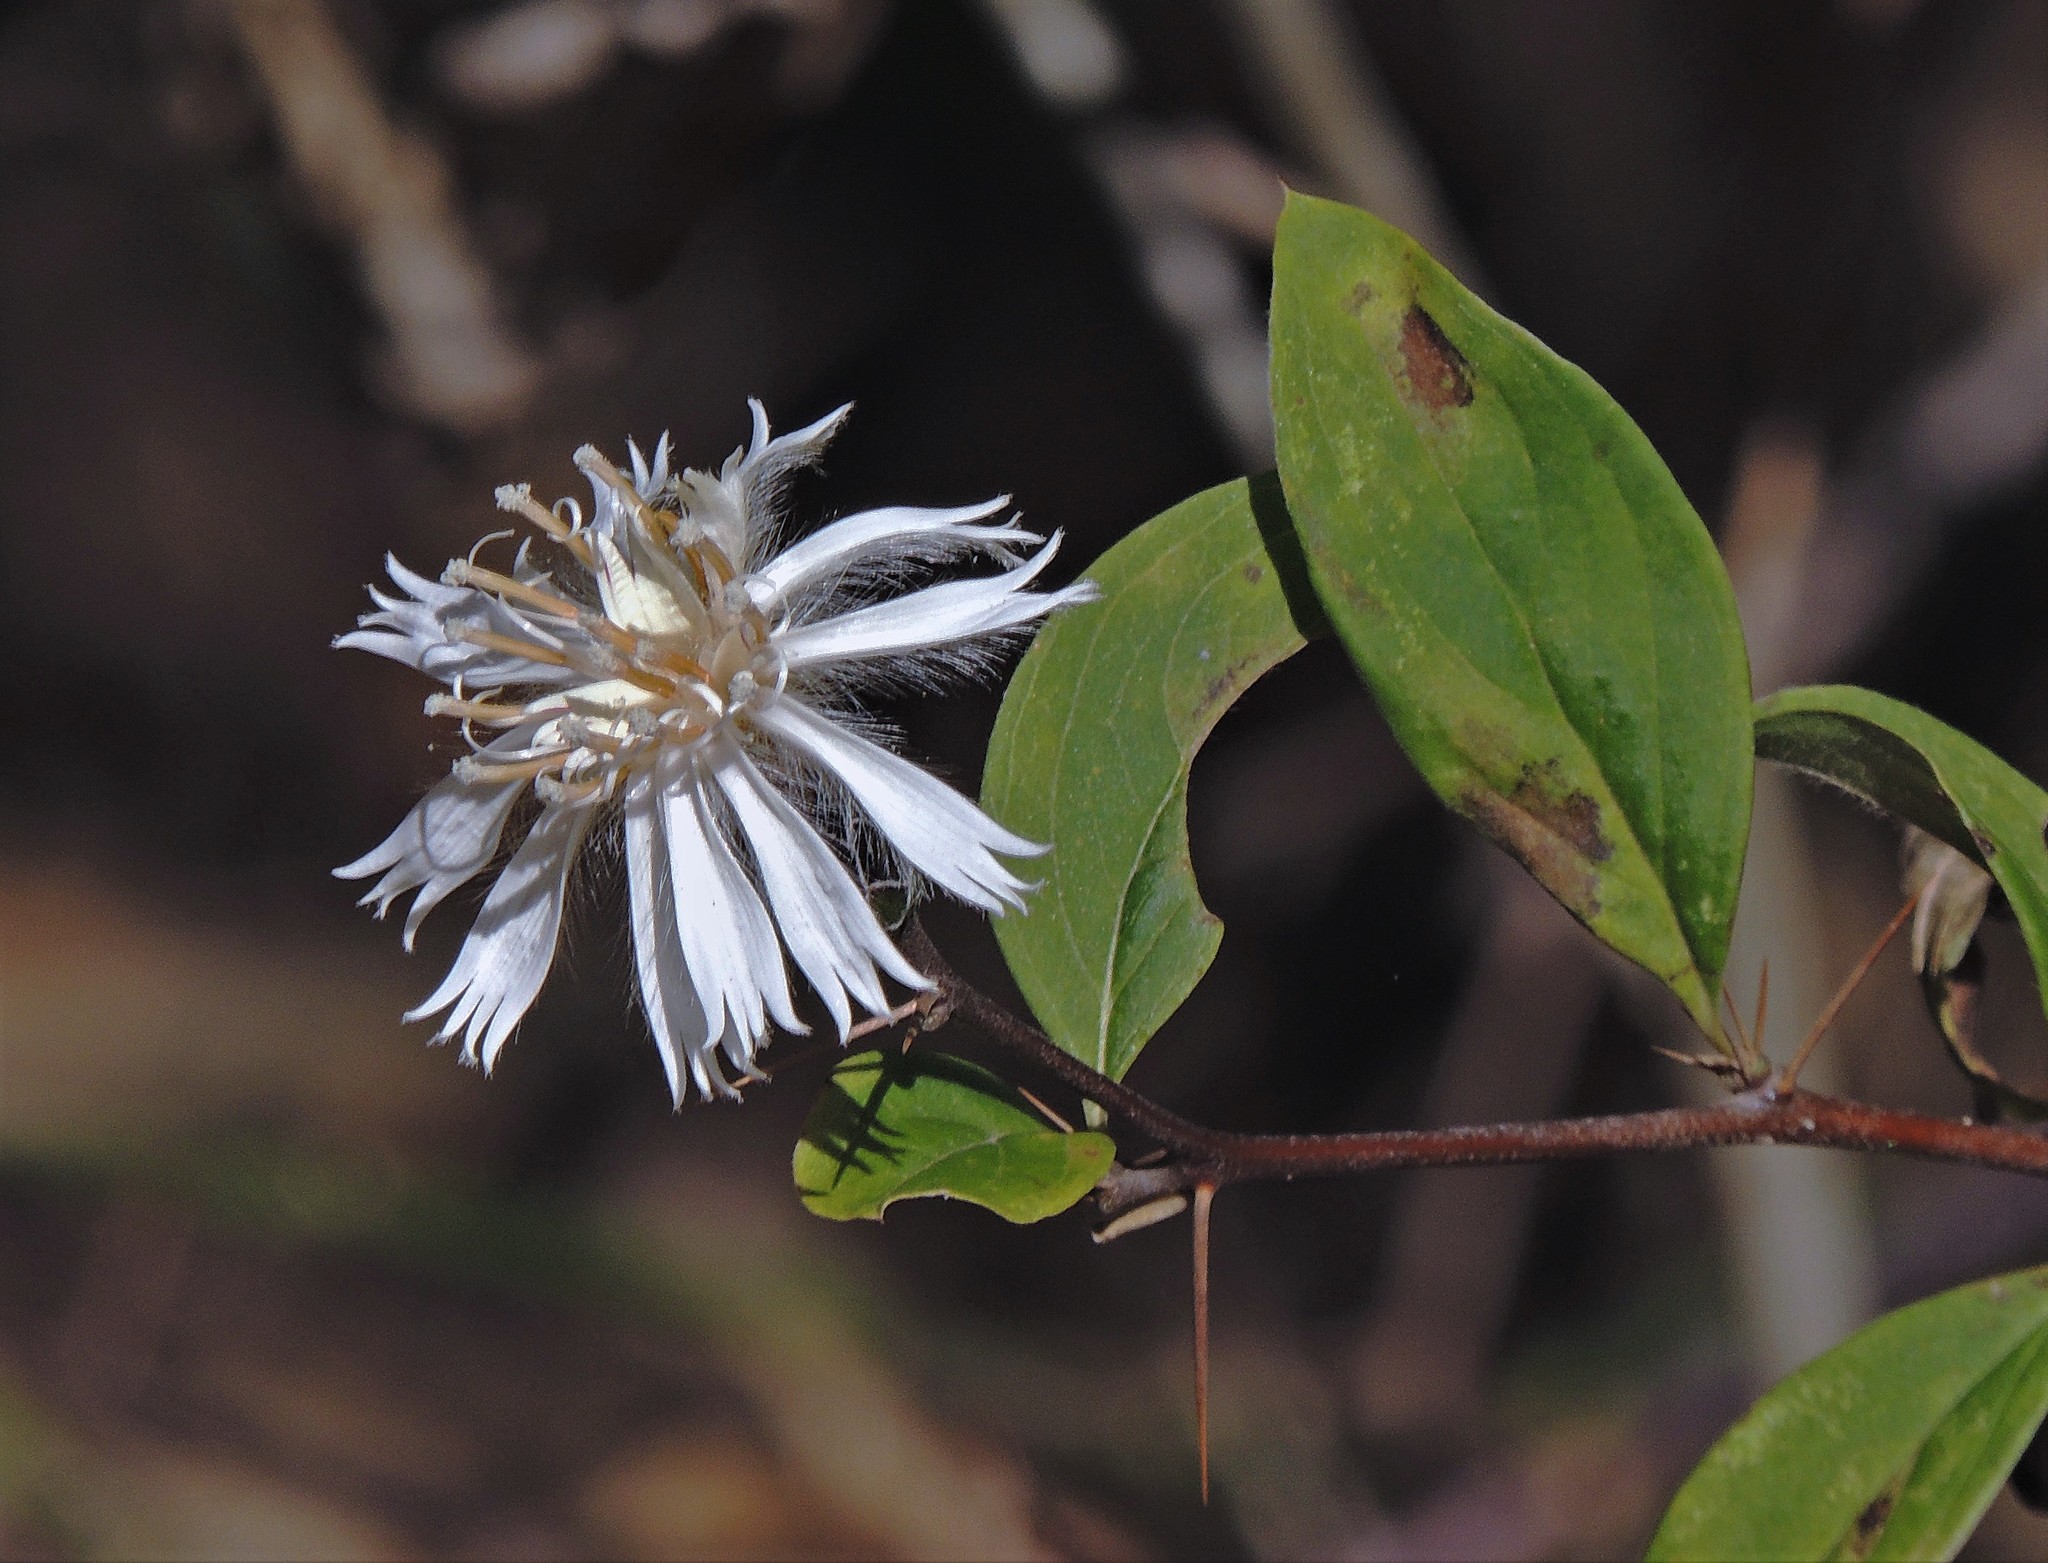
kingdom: Plantae
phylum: Tracheophyta
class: Magnoliopsida
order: Asterales
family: Asteraceae
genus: Barnadesia
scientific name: Barnadesia odorata
